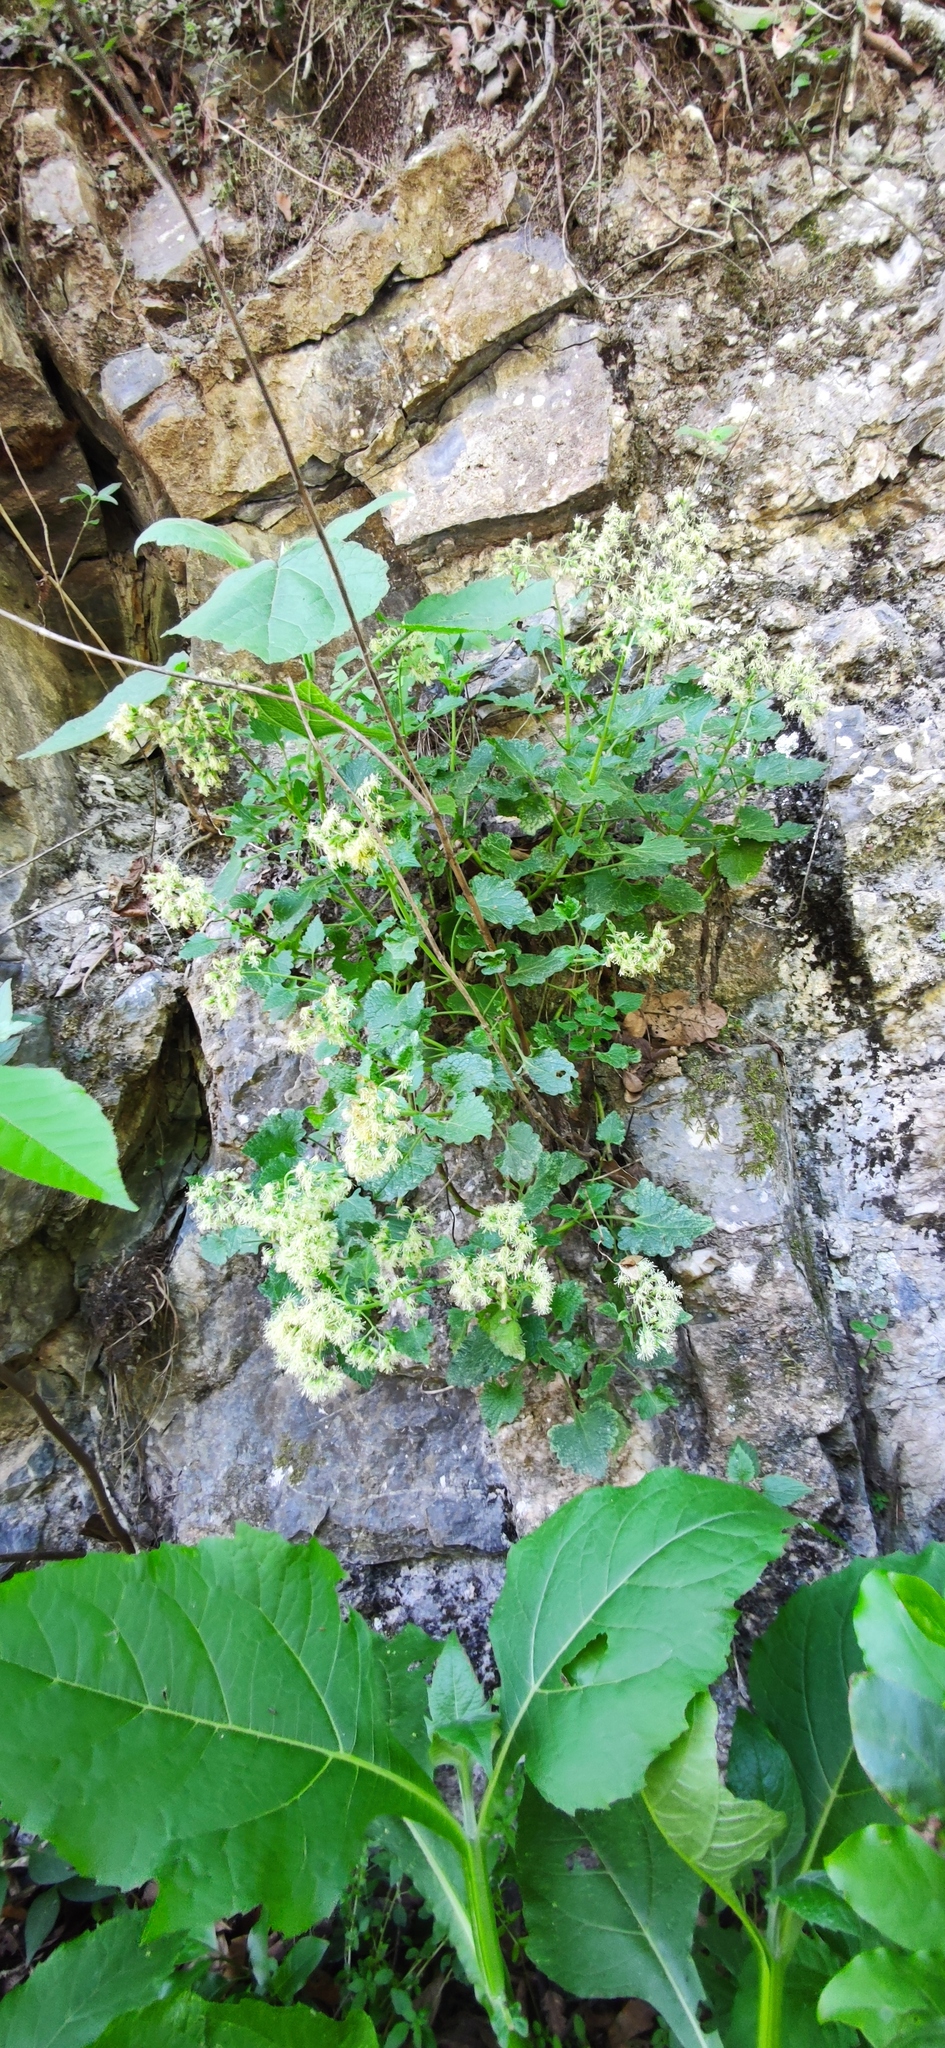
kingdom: Plantae
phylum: Tracheophyta
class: Magnoliopsida
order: Asterales
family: Asteraceae
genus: Flyriella
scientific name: Flyriella leonensis
